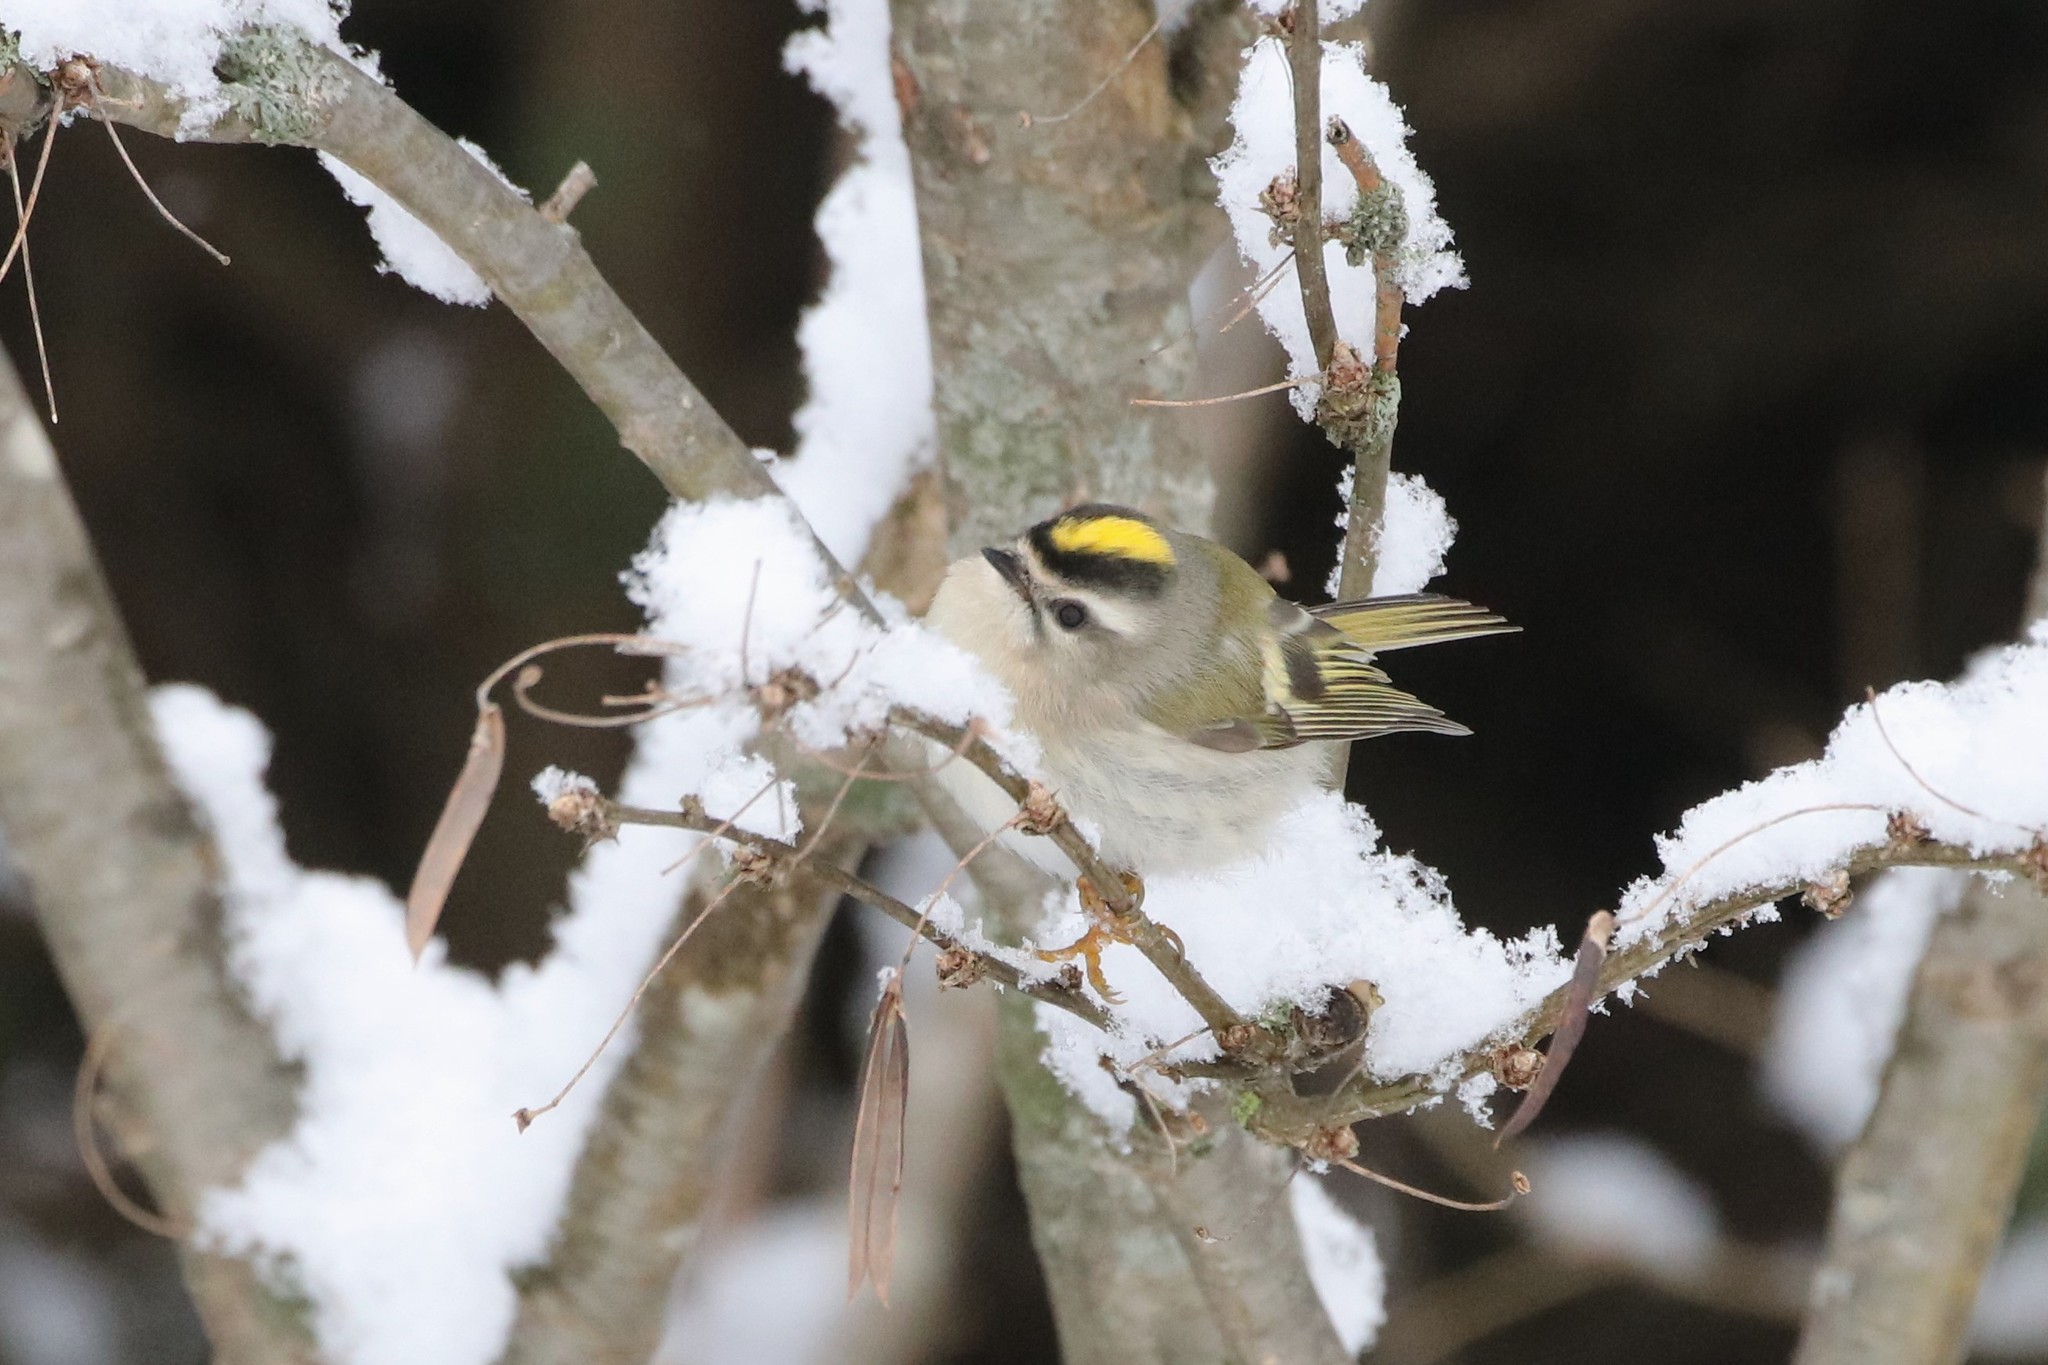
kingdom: Animalia
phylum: Chordata
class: Aves
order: Passeriformes
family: Regulidae
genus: Regulus
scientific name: Regulus satrapa
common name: Golden-crowned kinglet
